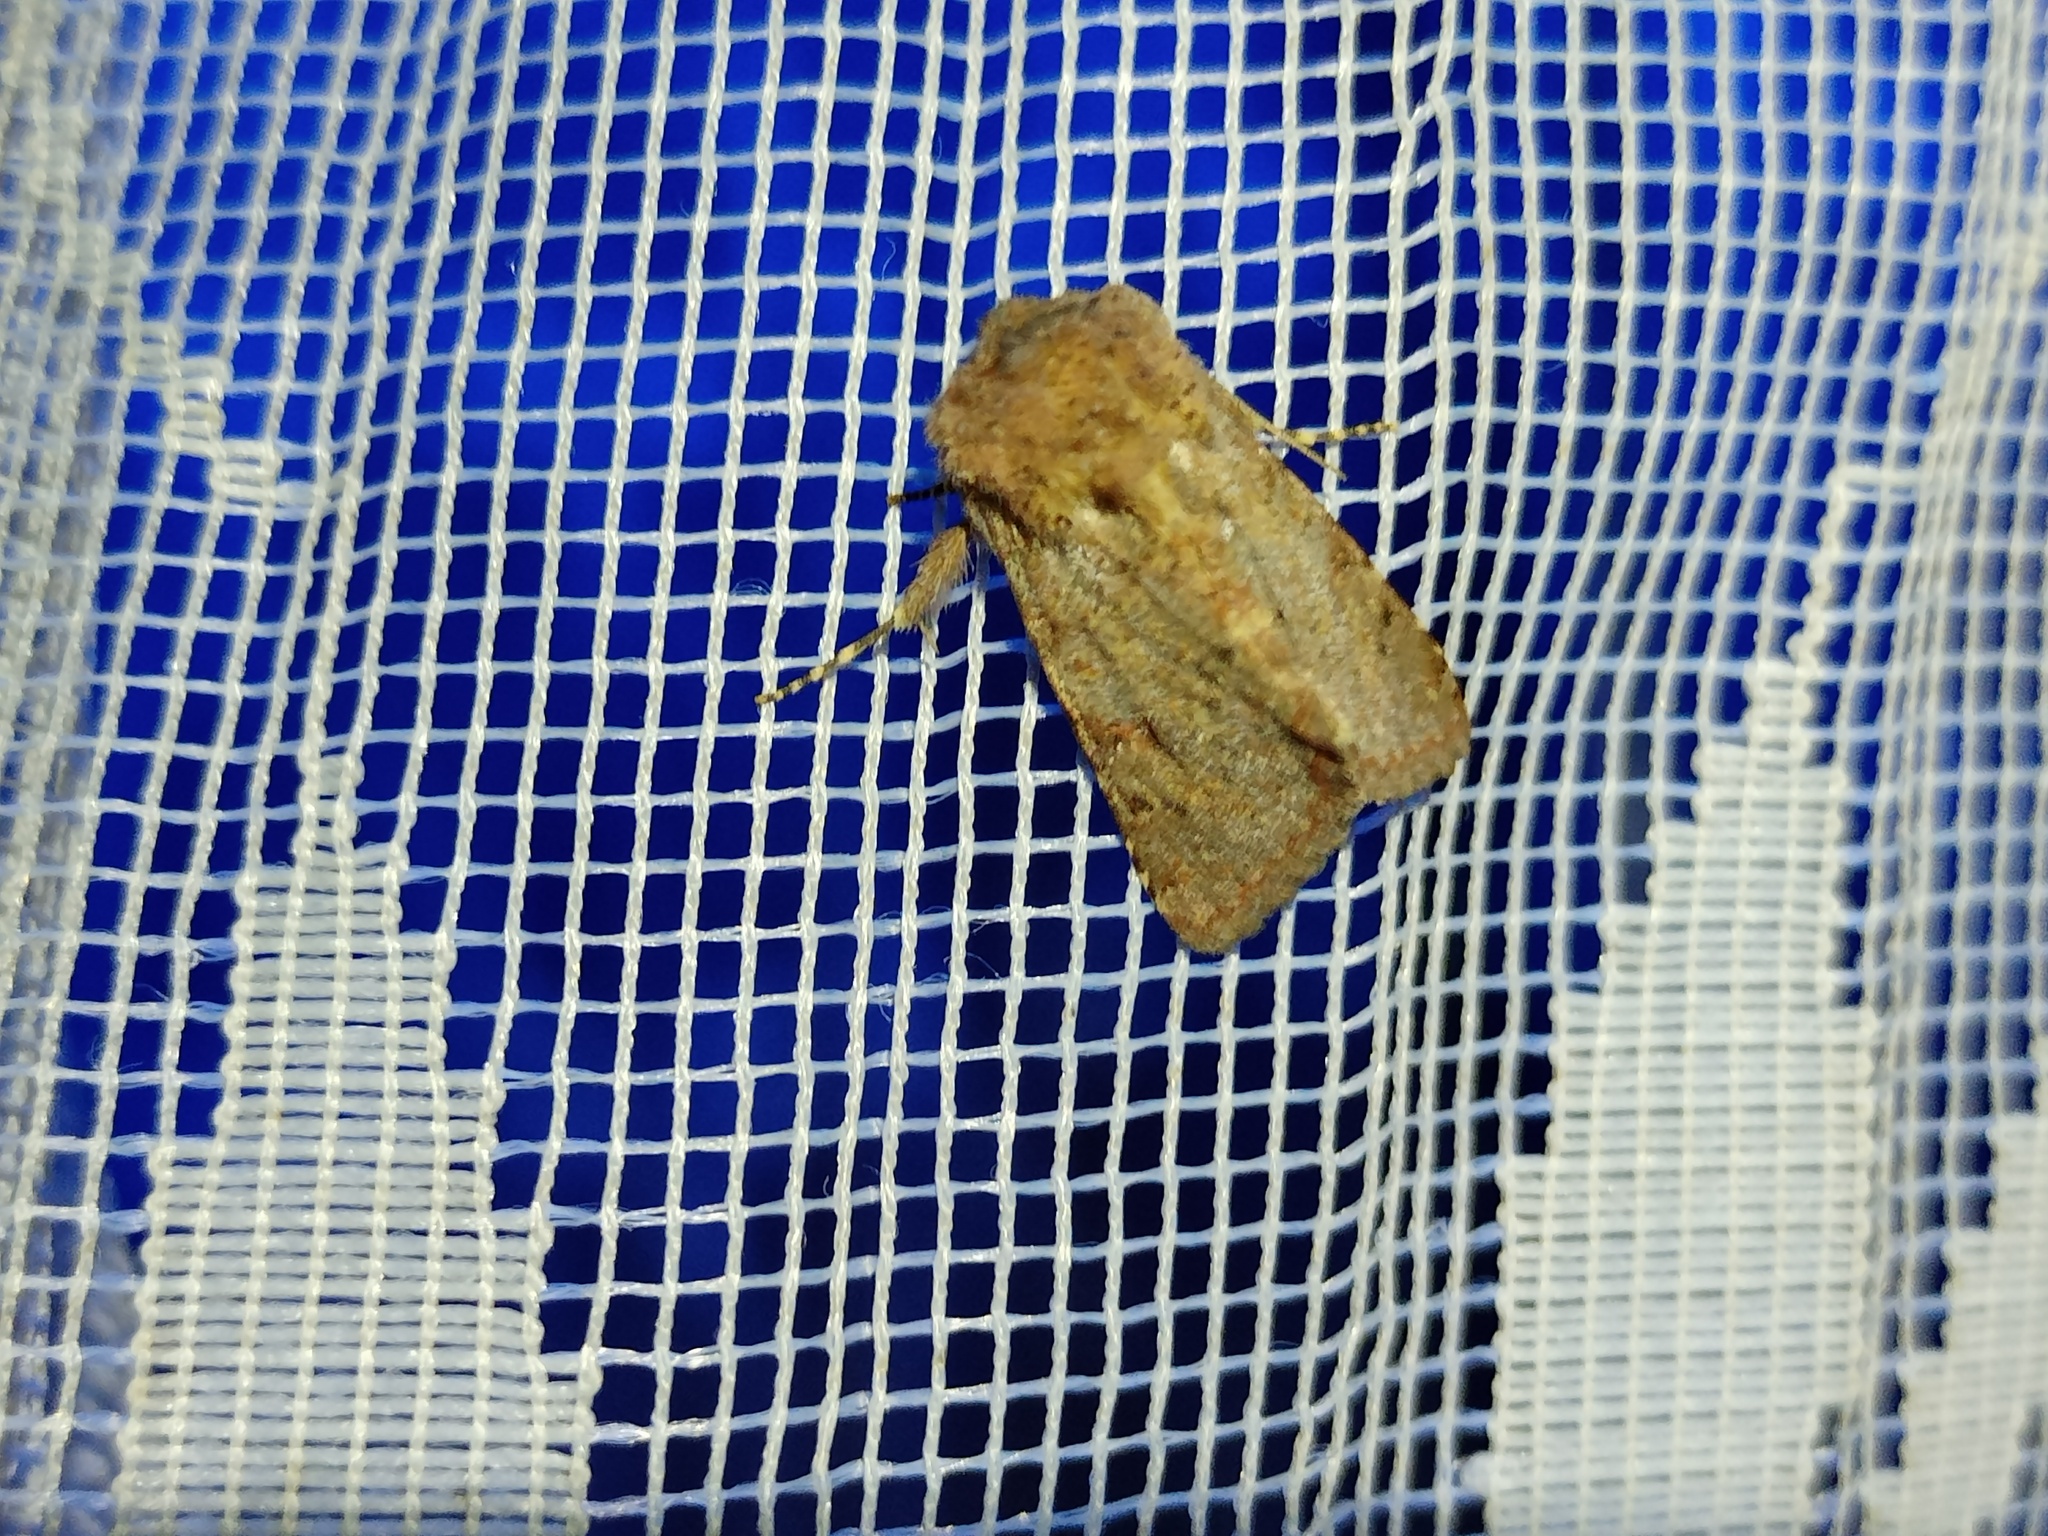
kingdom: Animalia
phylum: Arthropoda
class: Insecta
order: Lepidoptera
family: Noctuidae
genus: Metopoceras
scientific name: Metopoceras felicina
